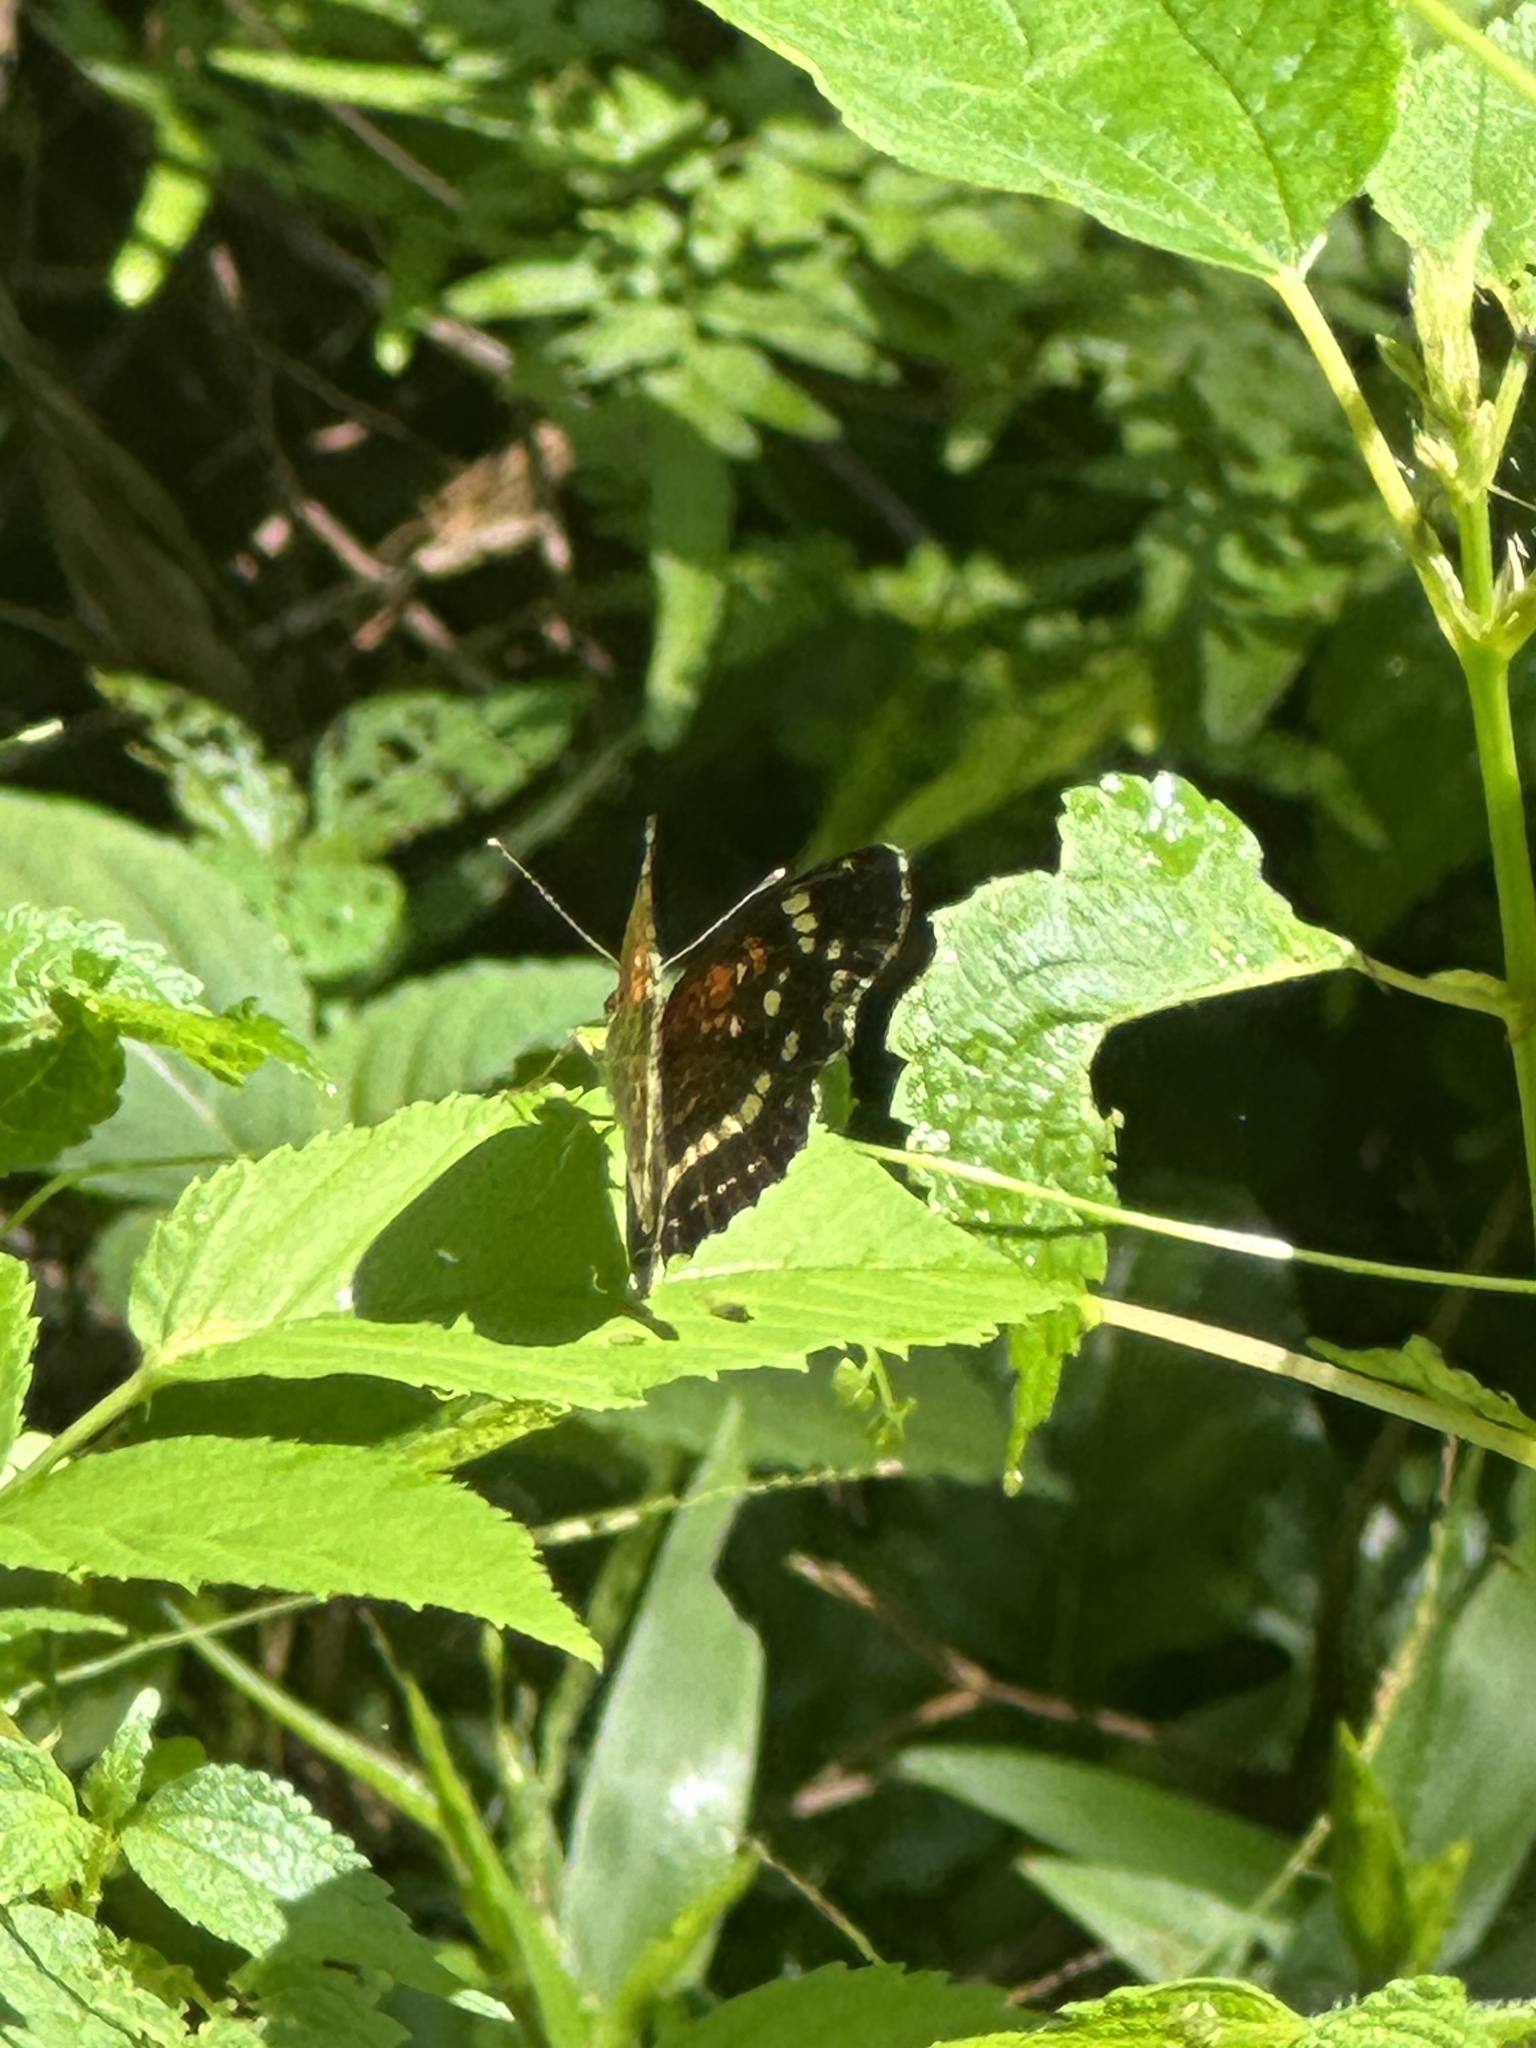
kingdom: Animalia
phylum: Arthropoda
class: Insecta
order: Lepidoptera
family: Nymphalidae
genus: Anthanassa
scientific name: Anthanassa taxana
